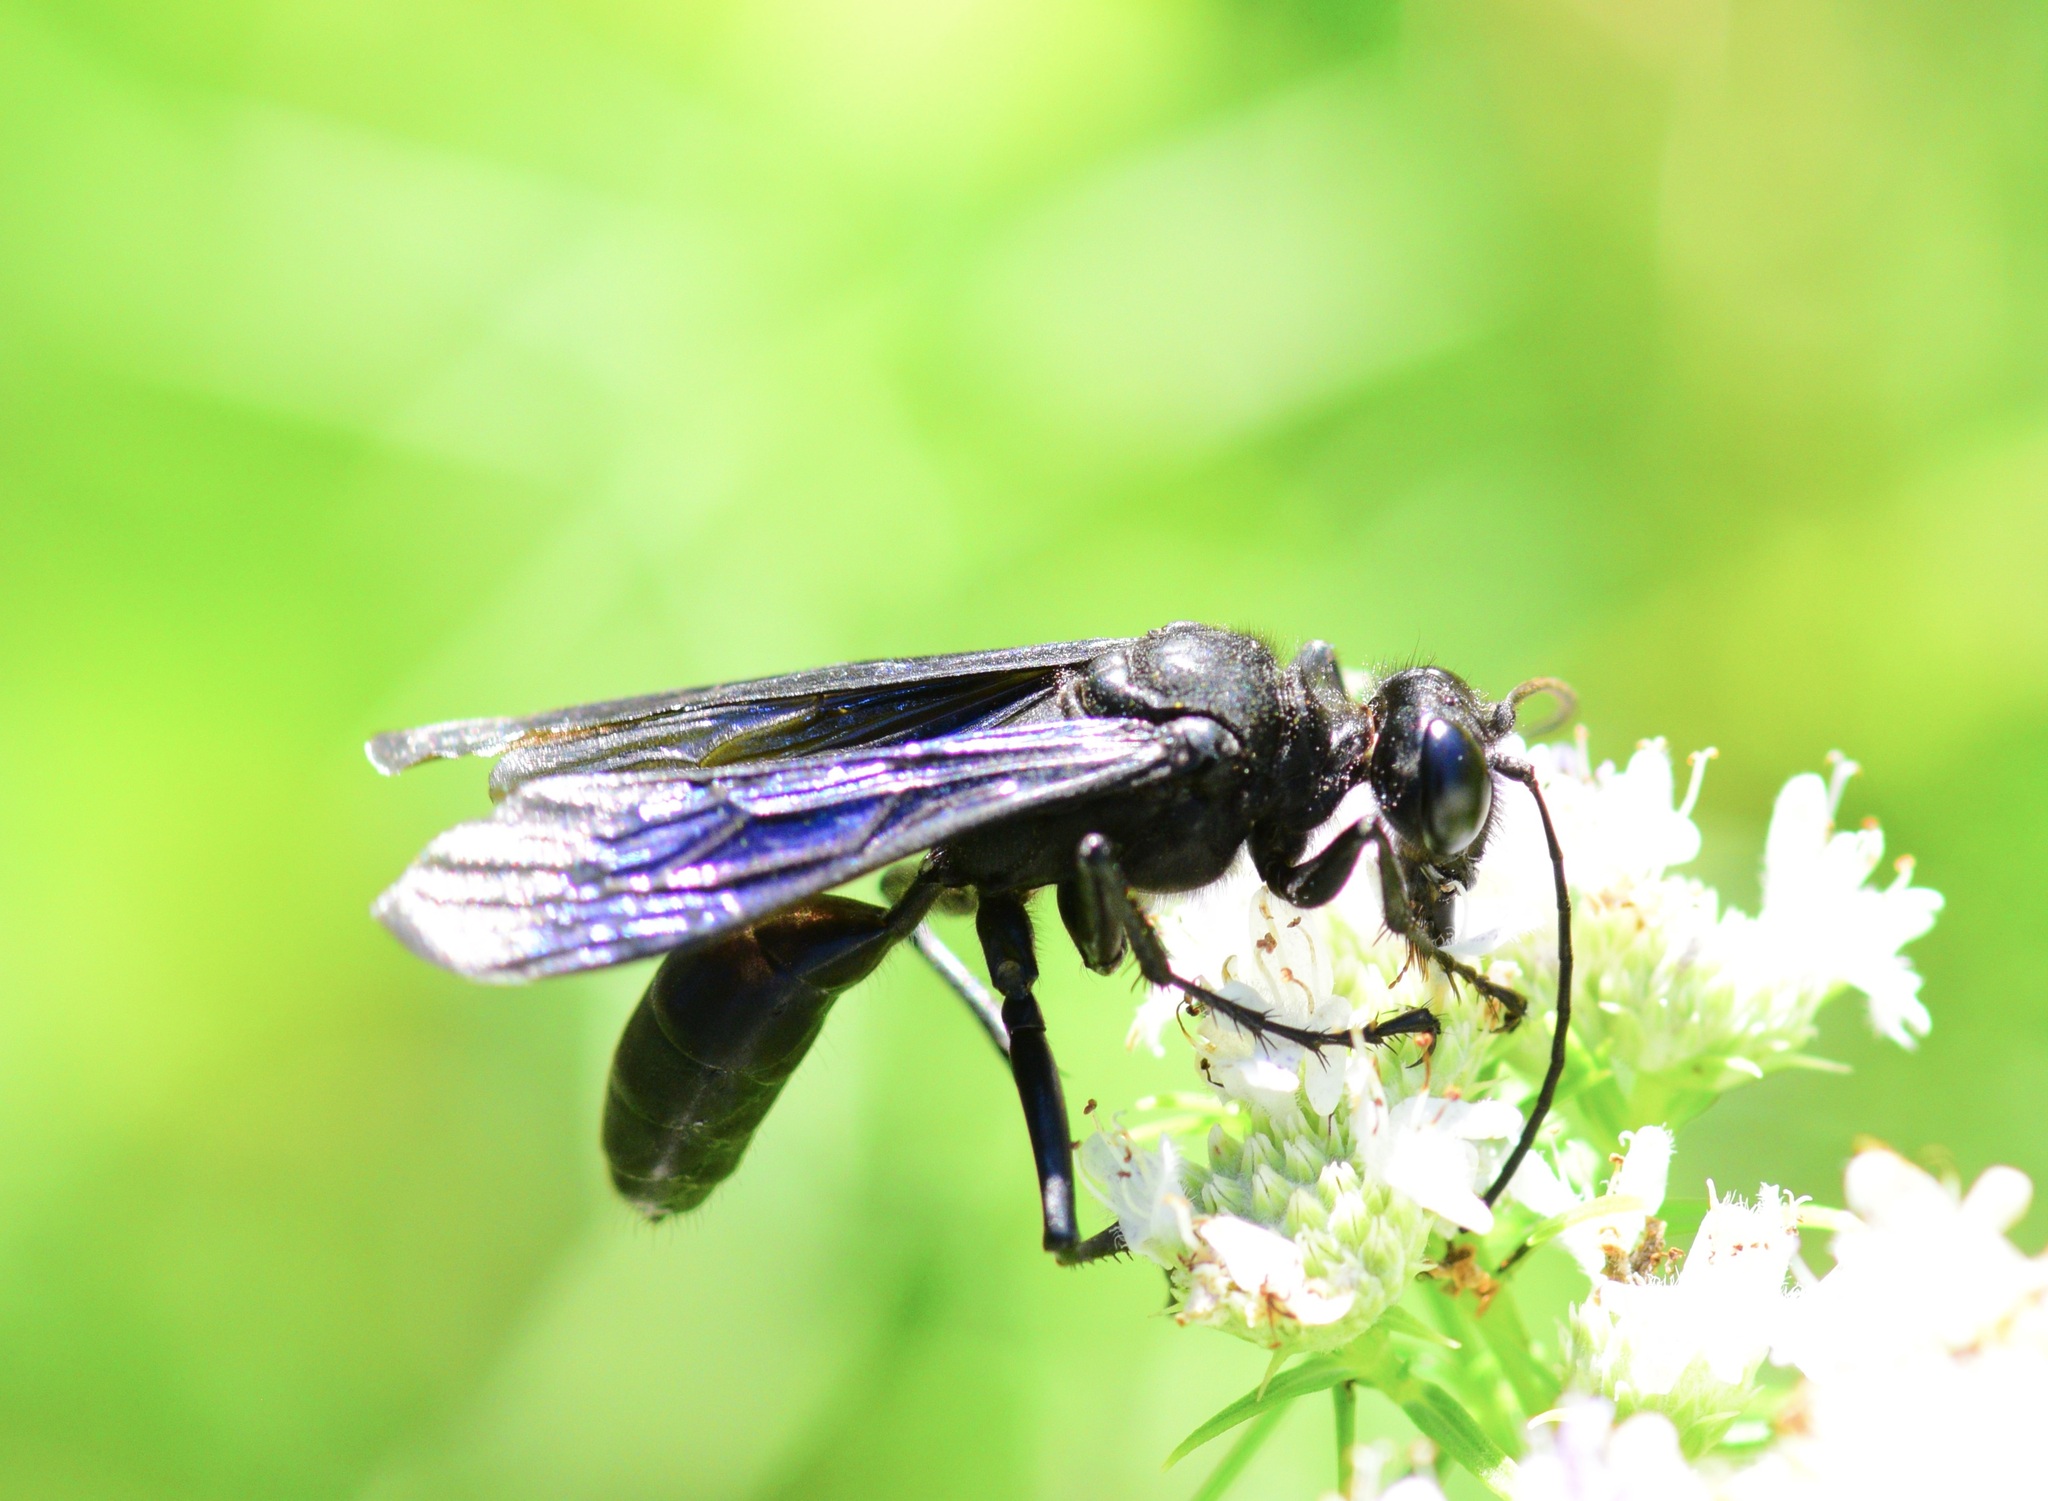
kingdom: Animalia
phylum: Arthropoda
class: Insecta
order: Hymenoptera
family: Sphecidae
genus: Sphex
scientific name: Sphex pensylvanicus
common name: Great black digger wasp
